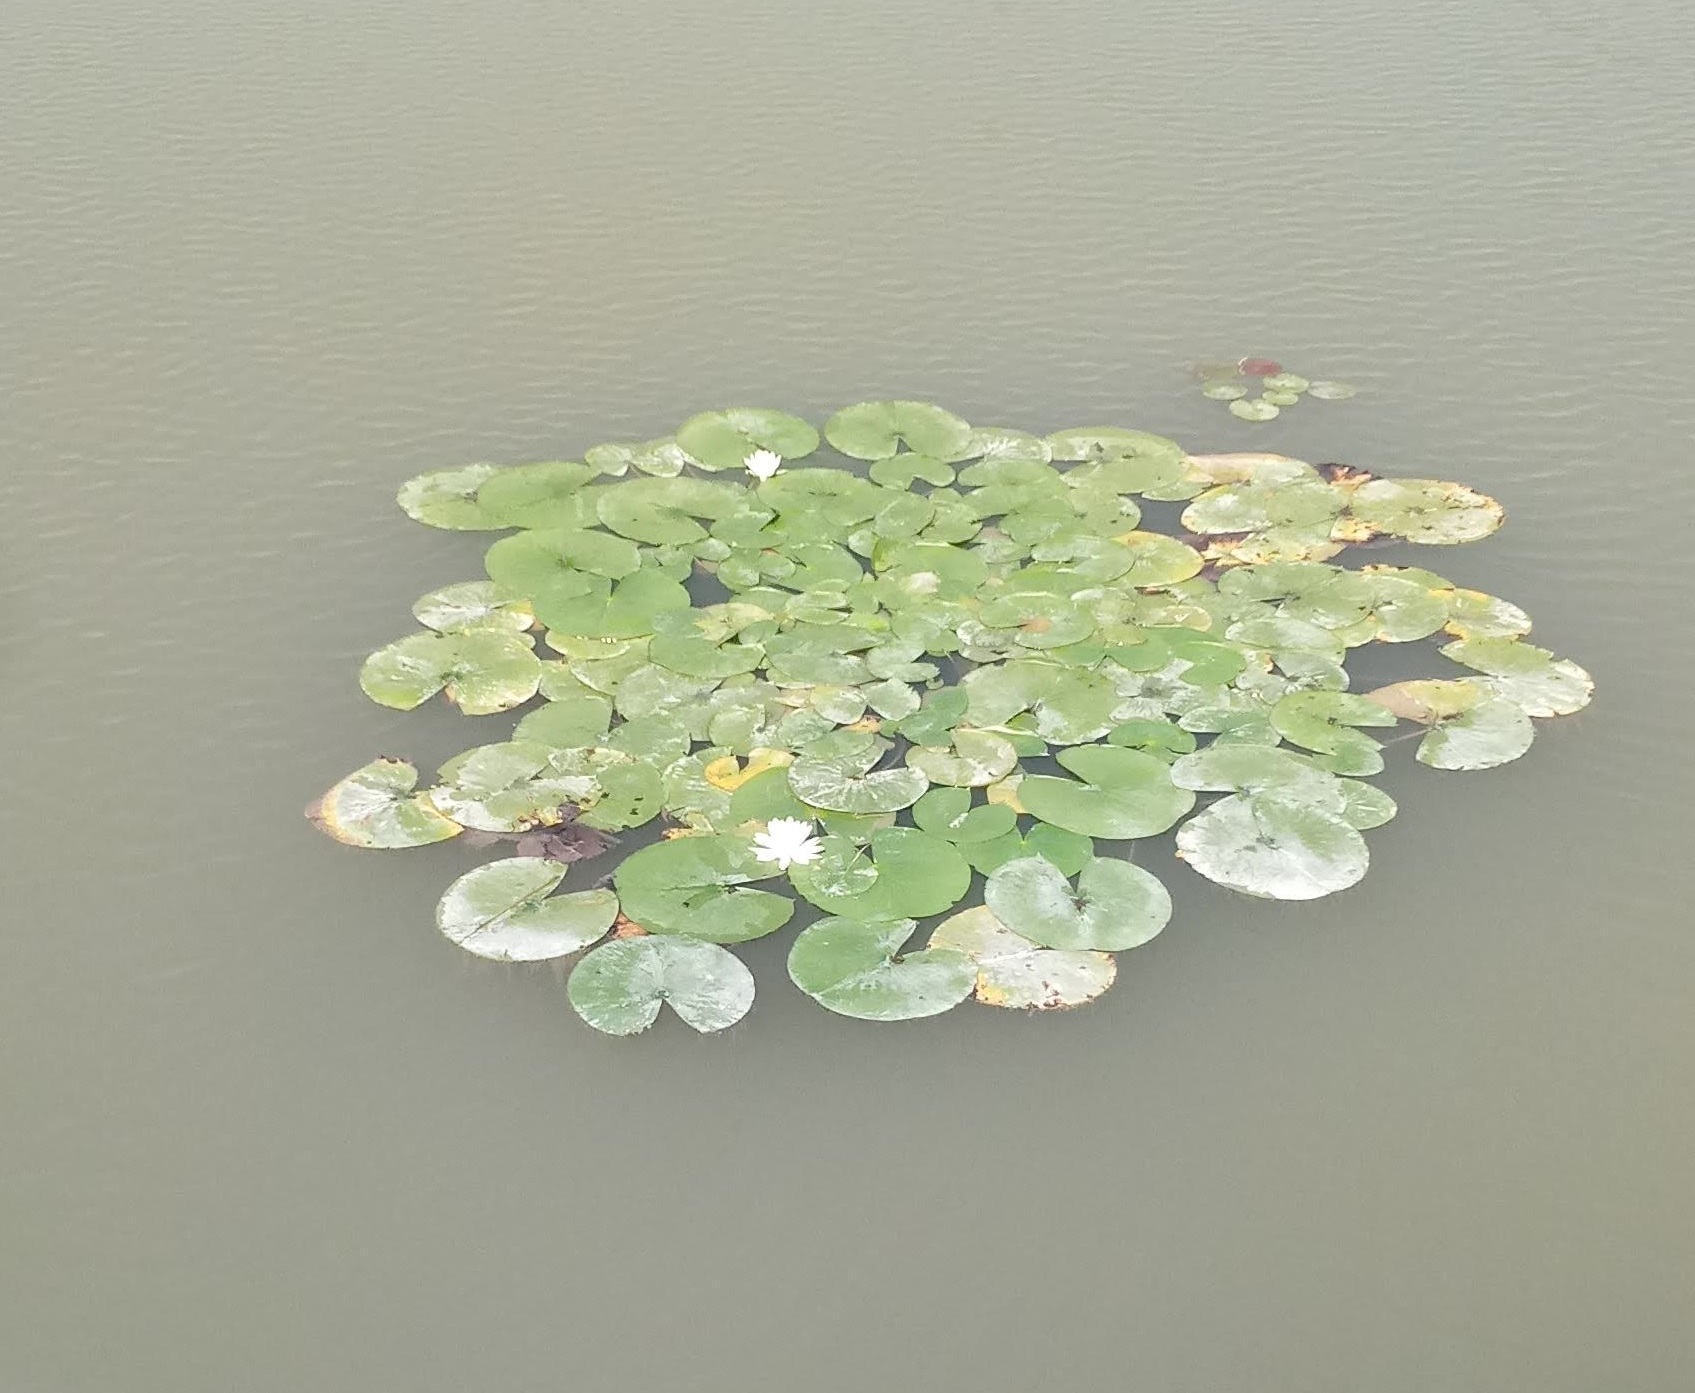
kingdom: Plantae
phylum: Tracheophyta
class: Magnoliopsida
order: Nymphaeales
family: Nymphaeaceae
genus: Nymphaea
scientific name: Nymphaea odorata
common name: Fragrant water-lily
